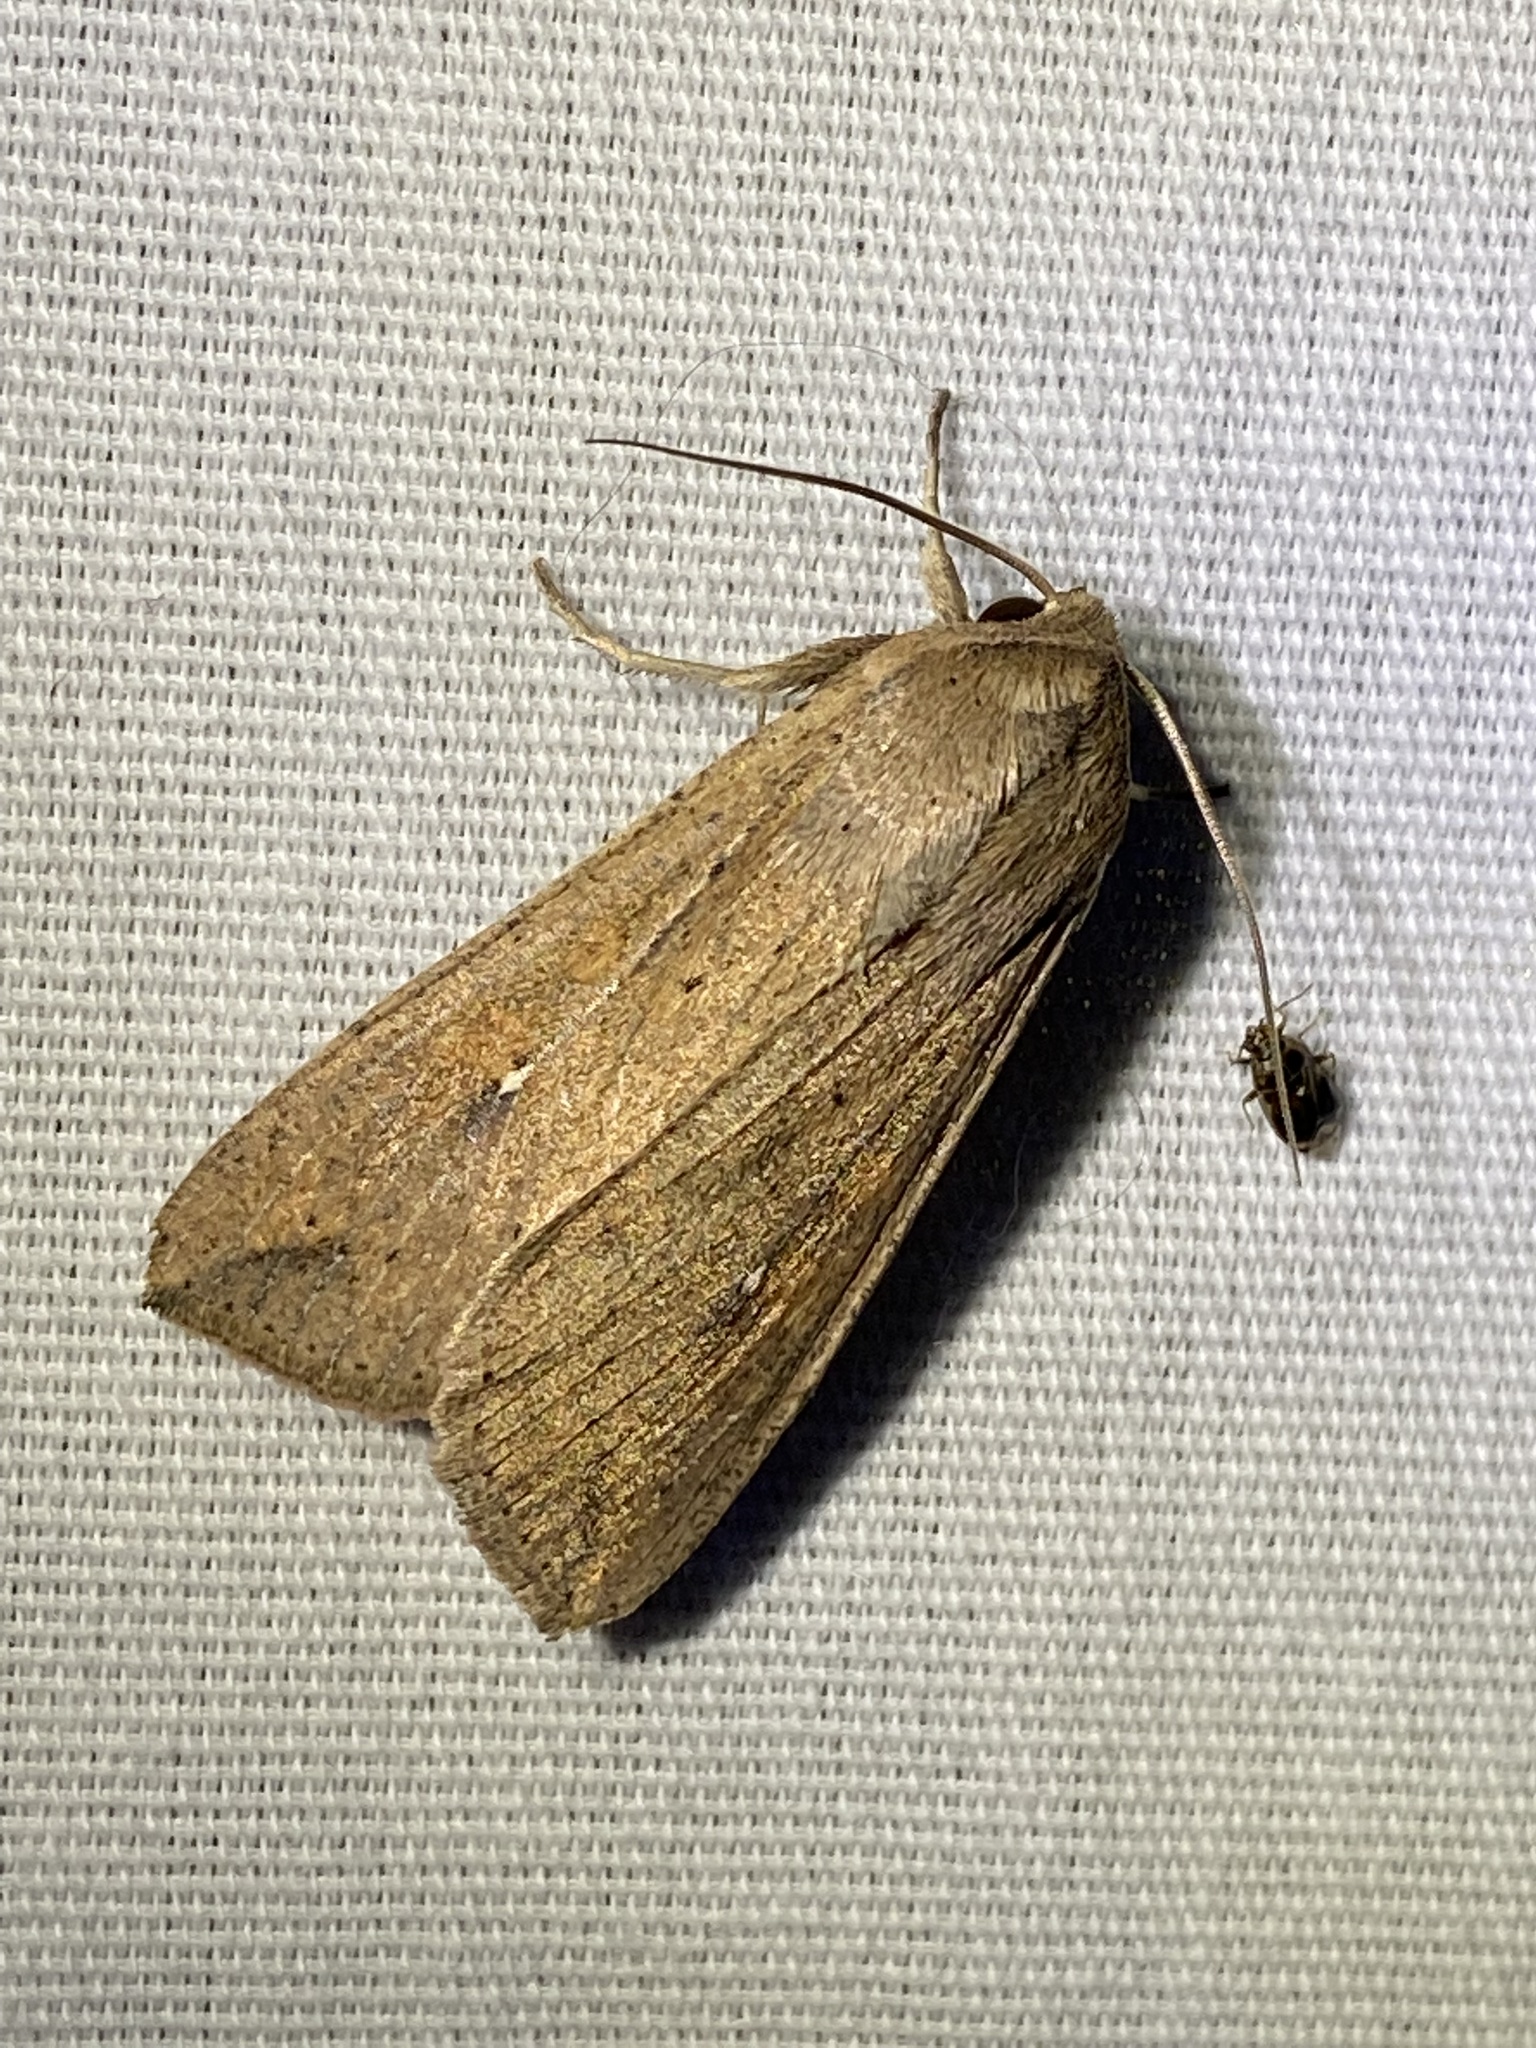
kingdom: Animalia
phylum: Arthropoda
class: Insecta
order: Lepidoptera
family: Noctuidae
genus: Mythimna
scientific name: Mythimna unipuncta
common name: White-speck
